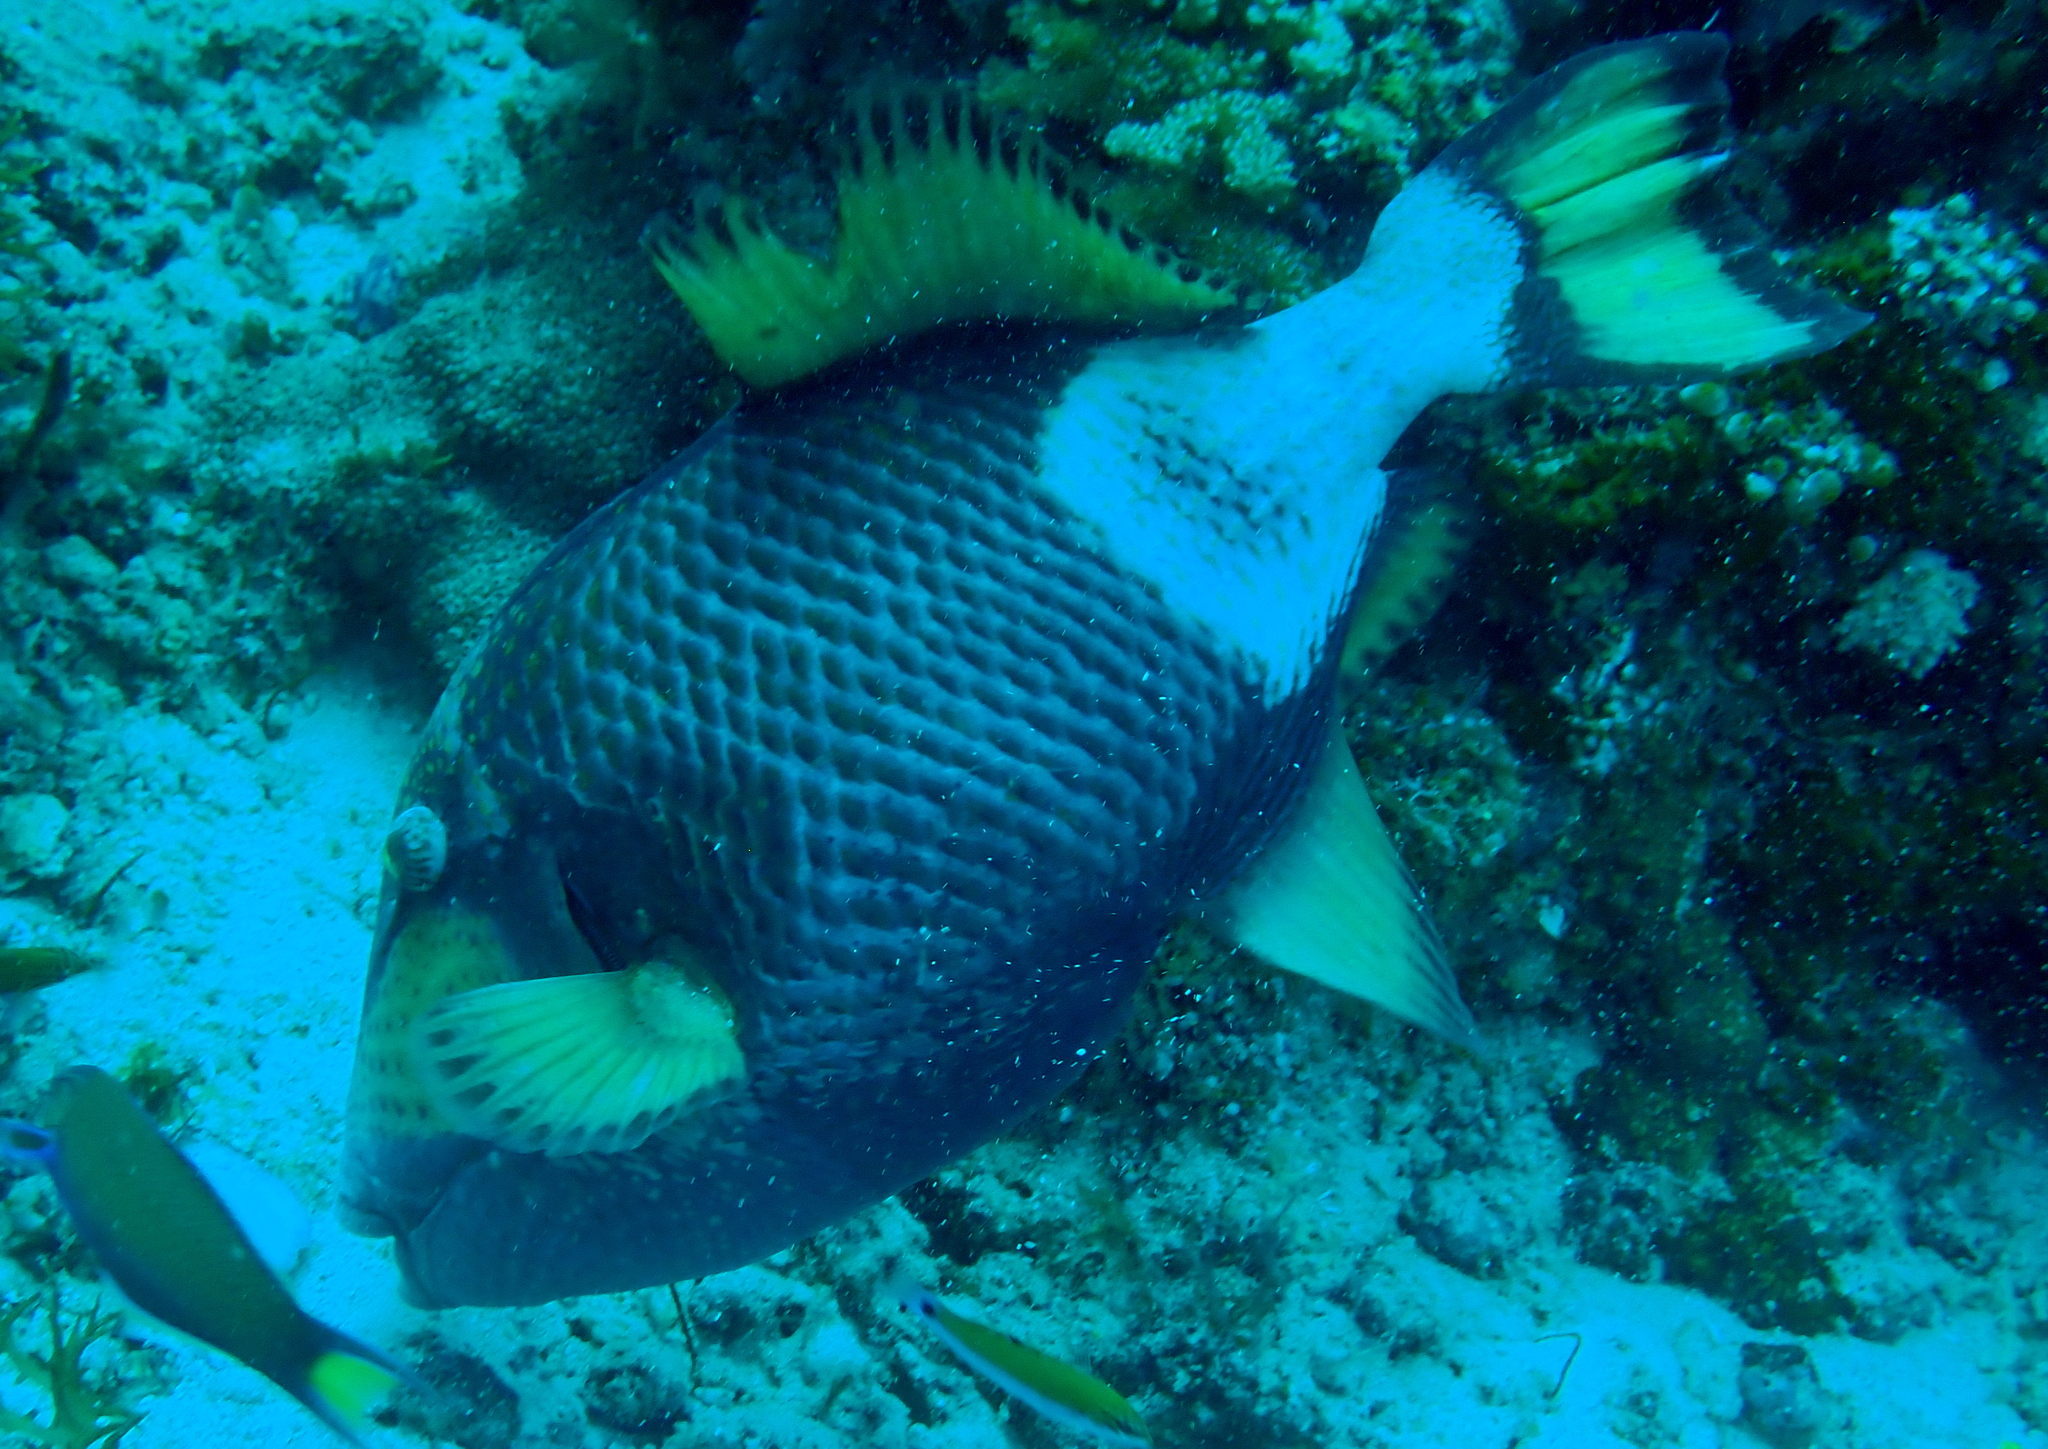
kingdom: Animalia
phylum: Chordata
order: Tetraodontiformes
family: Balistidae
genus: Balistoides
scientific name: Balistoides viridescens
